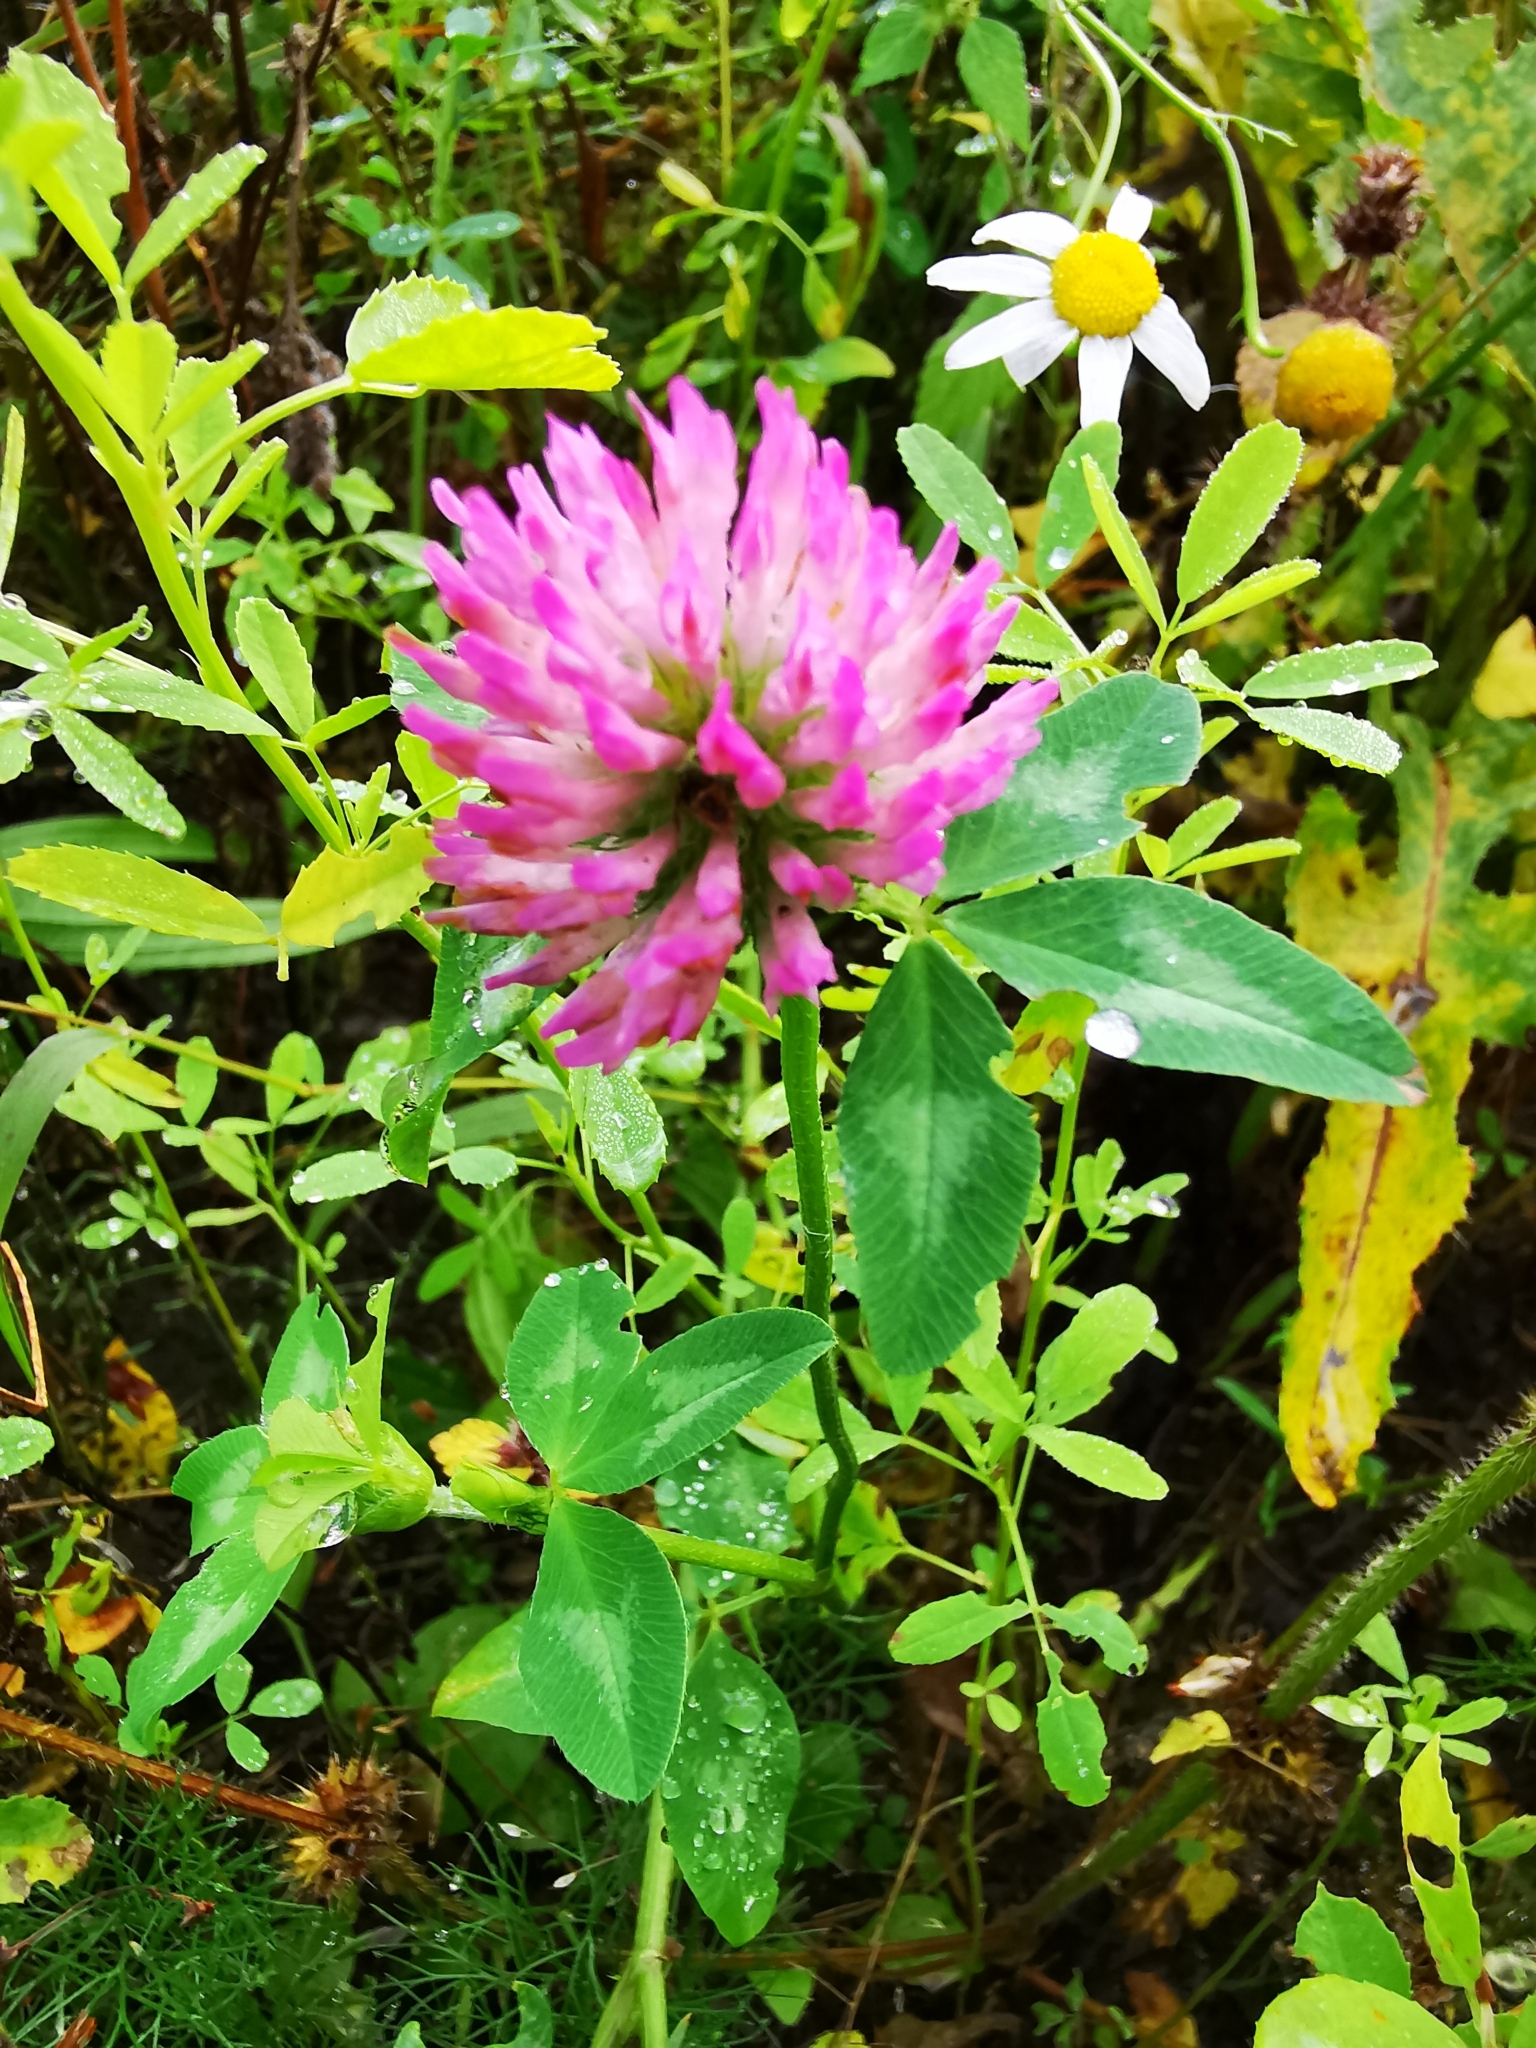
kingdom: Plantae
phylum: Tracheophyta
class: Magnoliopsida
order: Fabales
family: Fabaceae
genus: Trifolium
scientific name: Trifolium pratense
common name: Red clover
